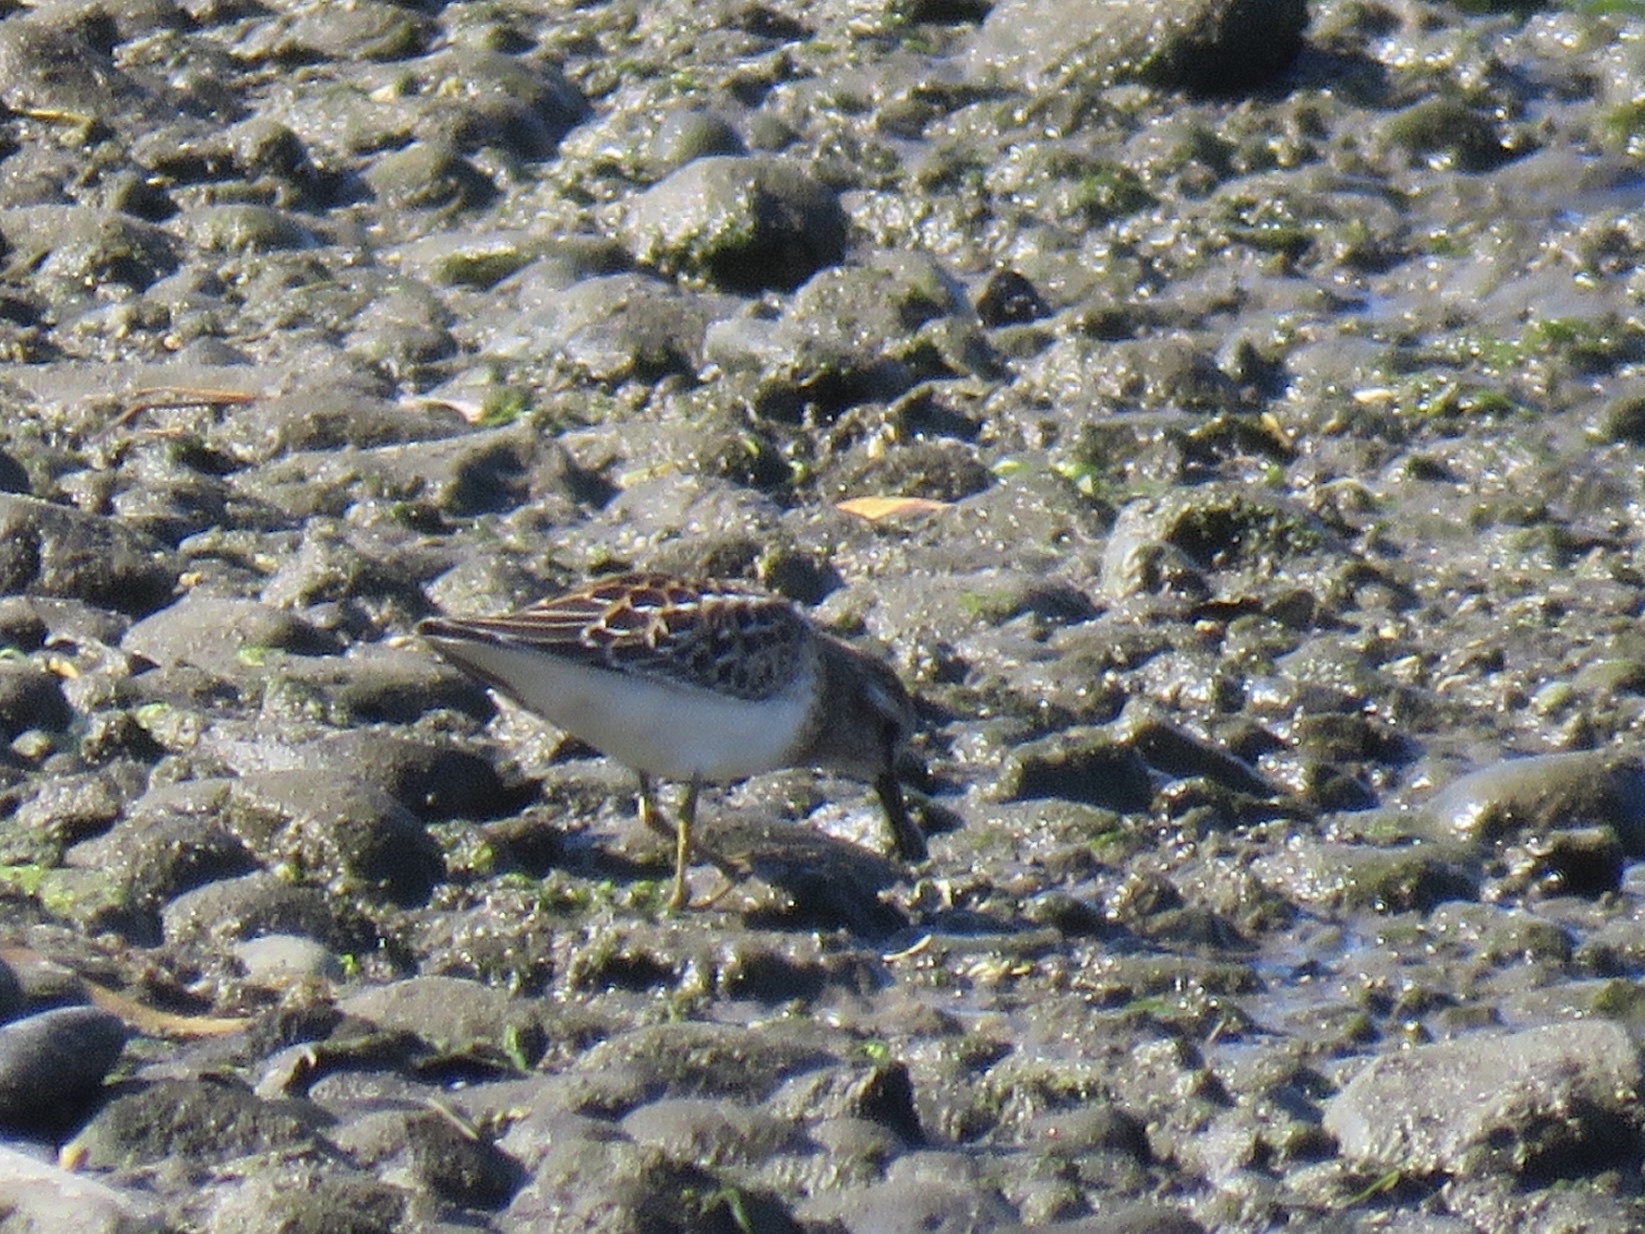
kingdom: Animalia
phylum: Chordata
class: Aves
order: Charadriiformes
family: Scolopacidae
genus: Calidris
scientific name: Calidris minutilla
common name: Least sandpiper
